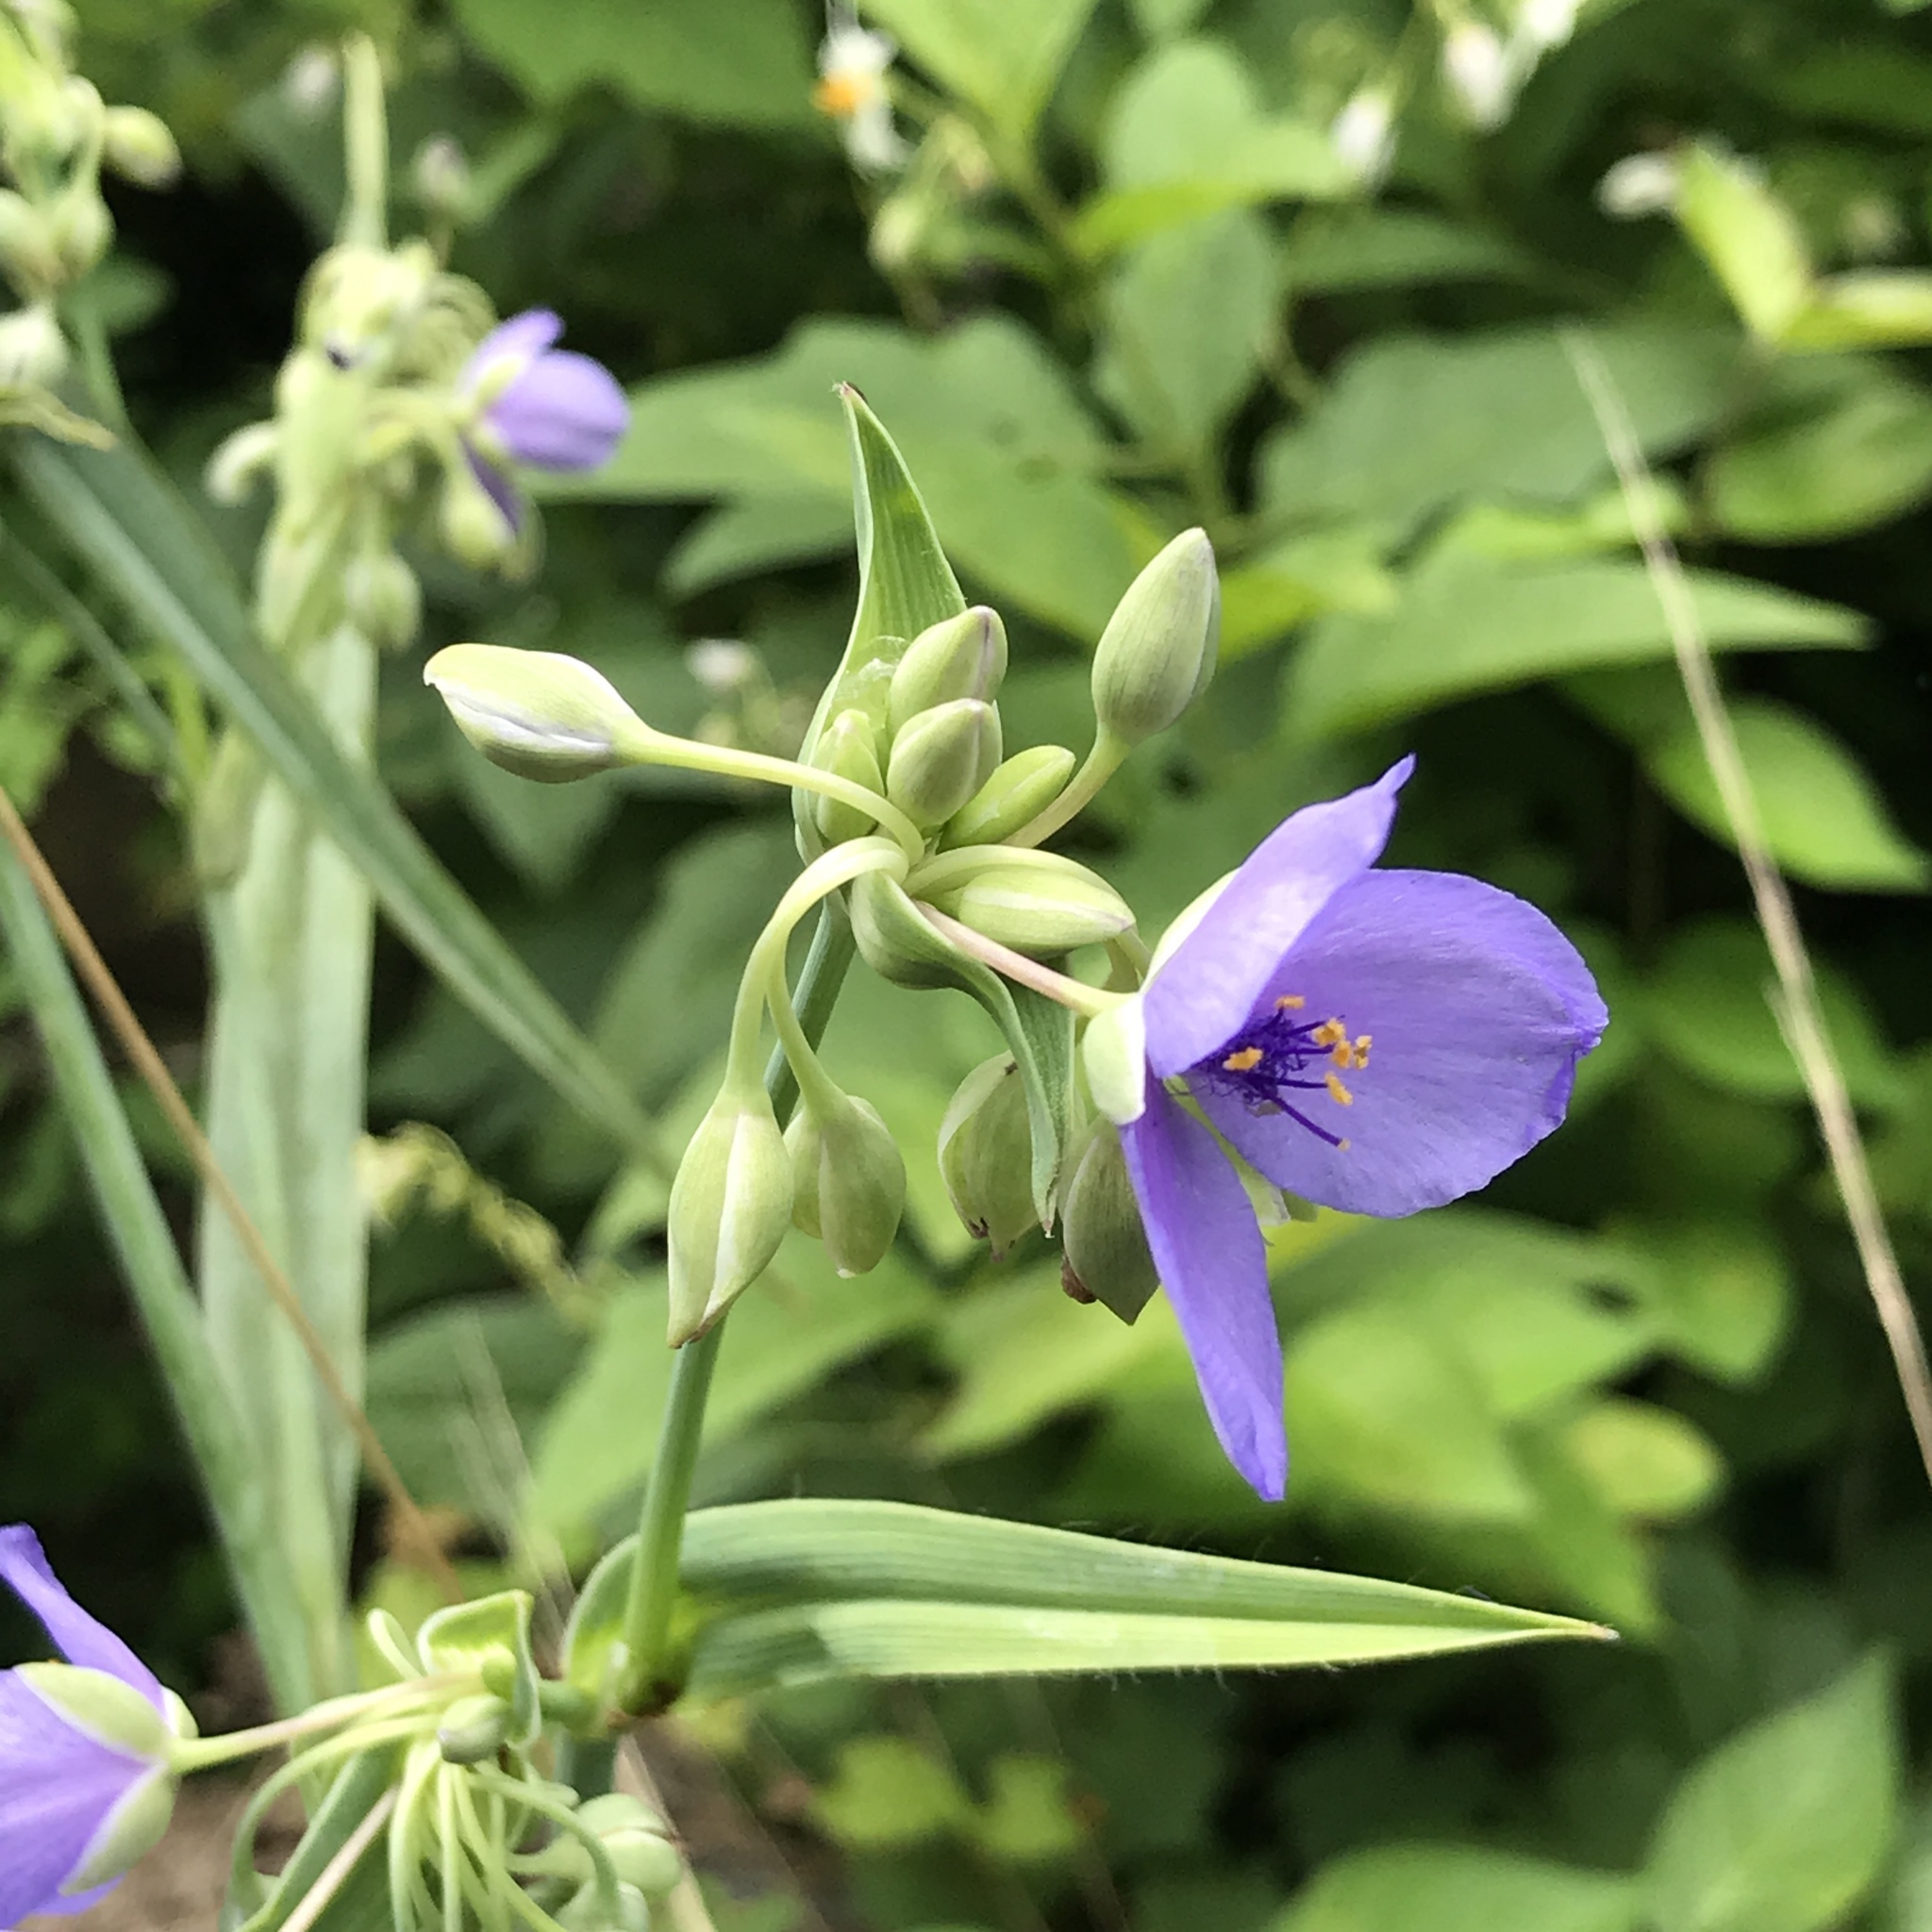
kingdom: Plantae
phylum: Tracheophyta
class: Liliopsida
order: Commelinales
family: Commelinaceae
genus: Tradescantia
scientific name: Tradescantia ohiensis
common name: Ohio spiderwort
